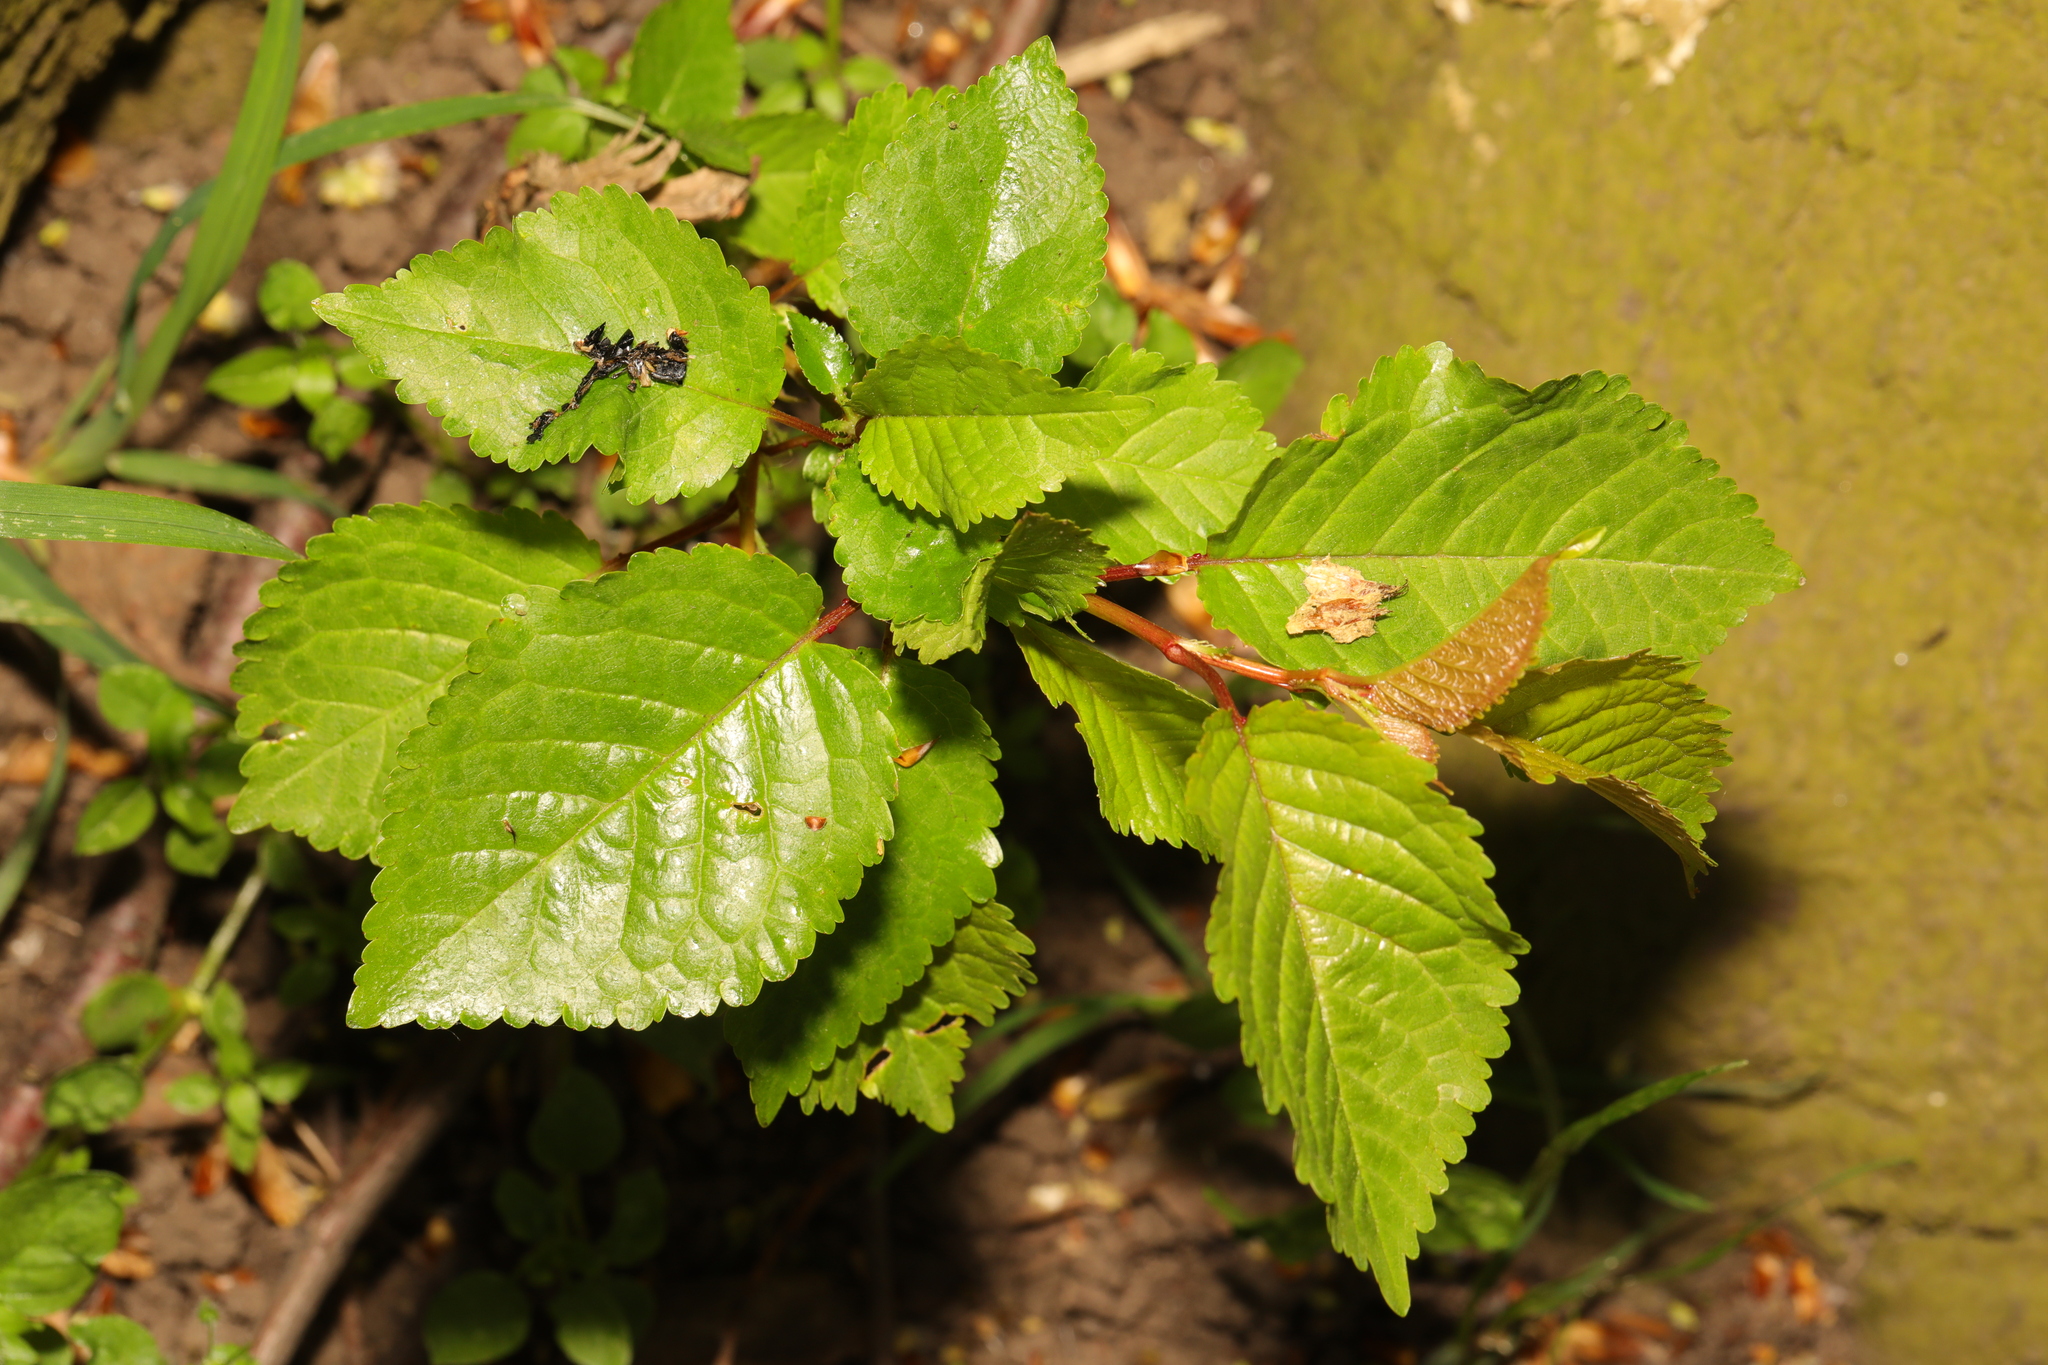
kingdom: Plantae
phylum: Tracheophyta
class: Magnoliopsida
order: Rosales
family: Rosaceae
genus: Prunus
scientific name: Prunus avium
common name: Sweet cherry
